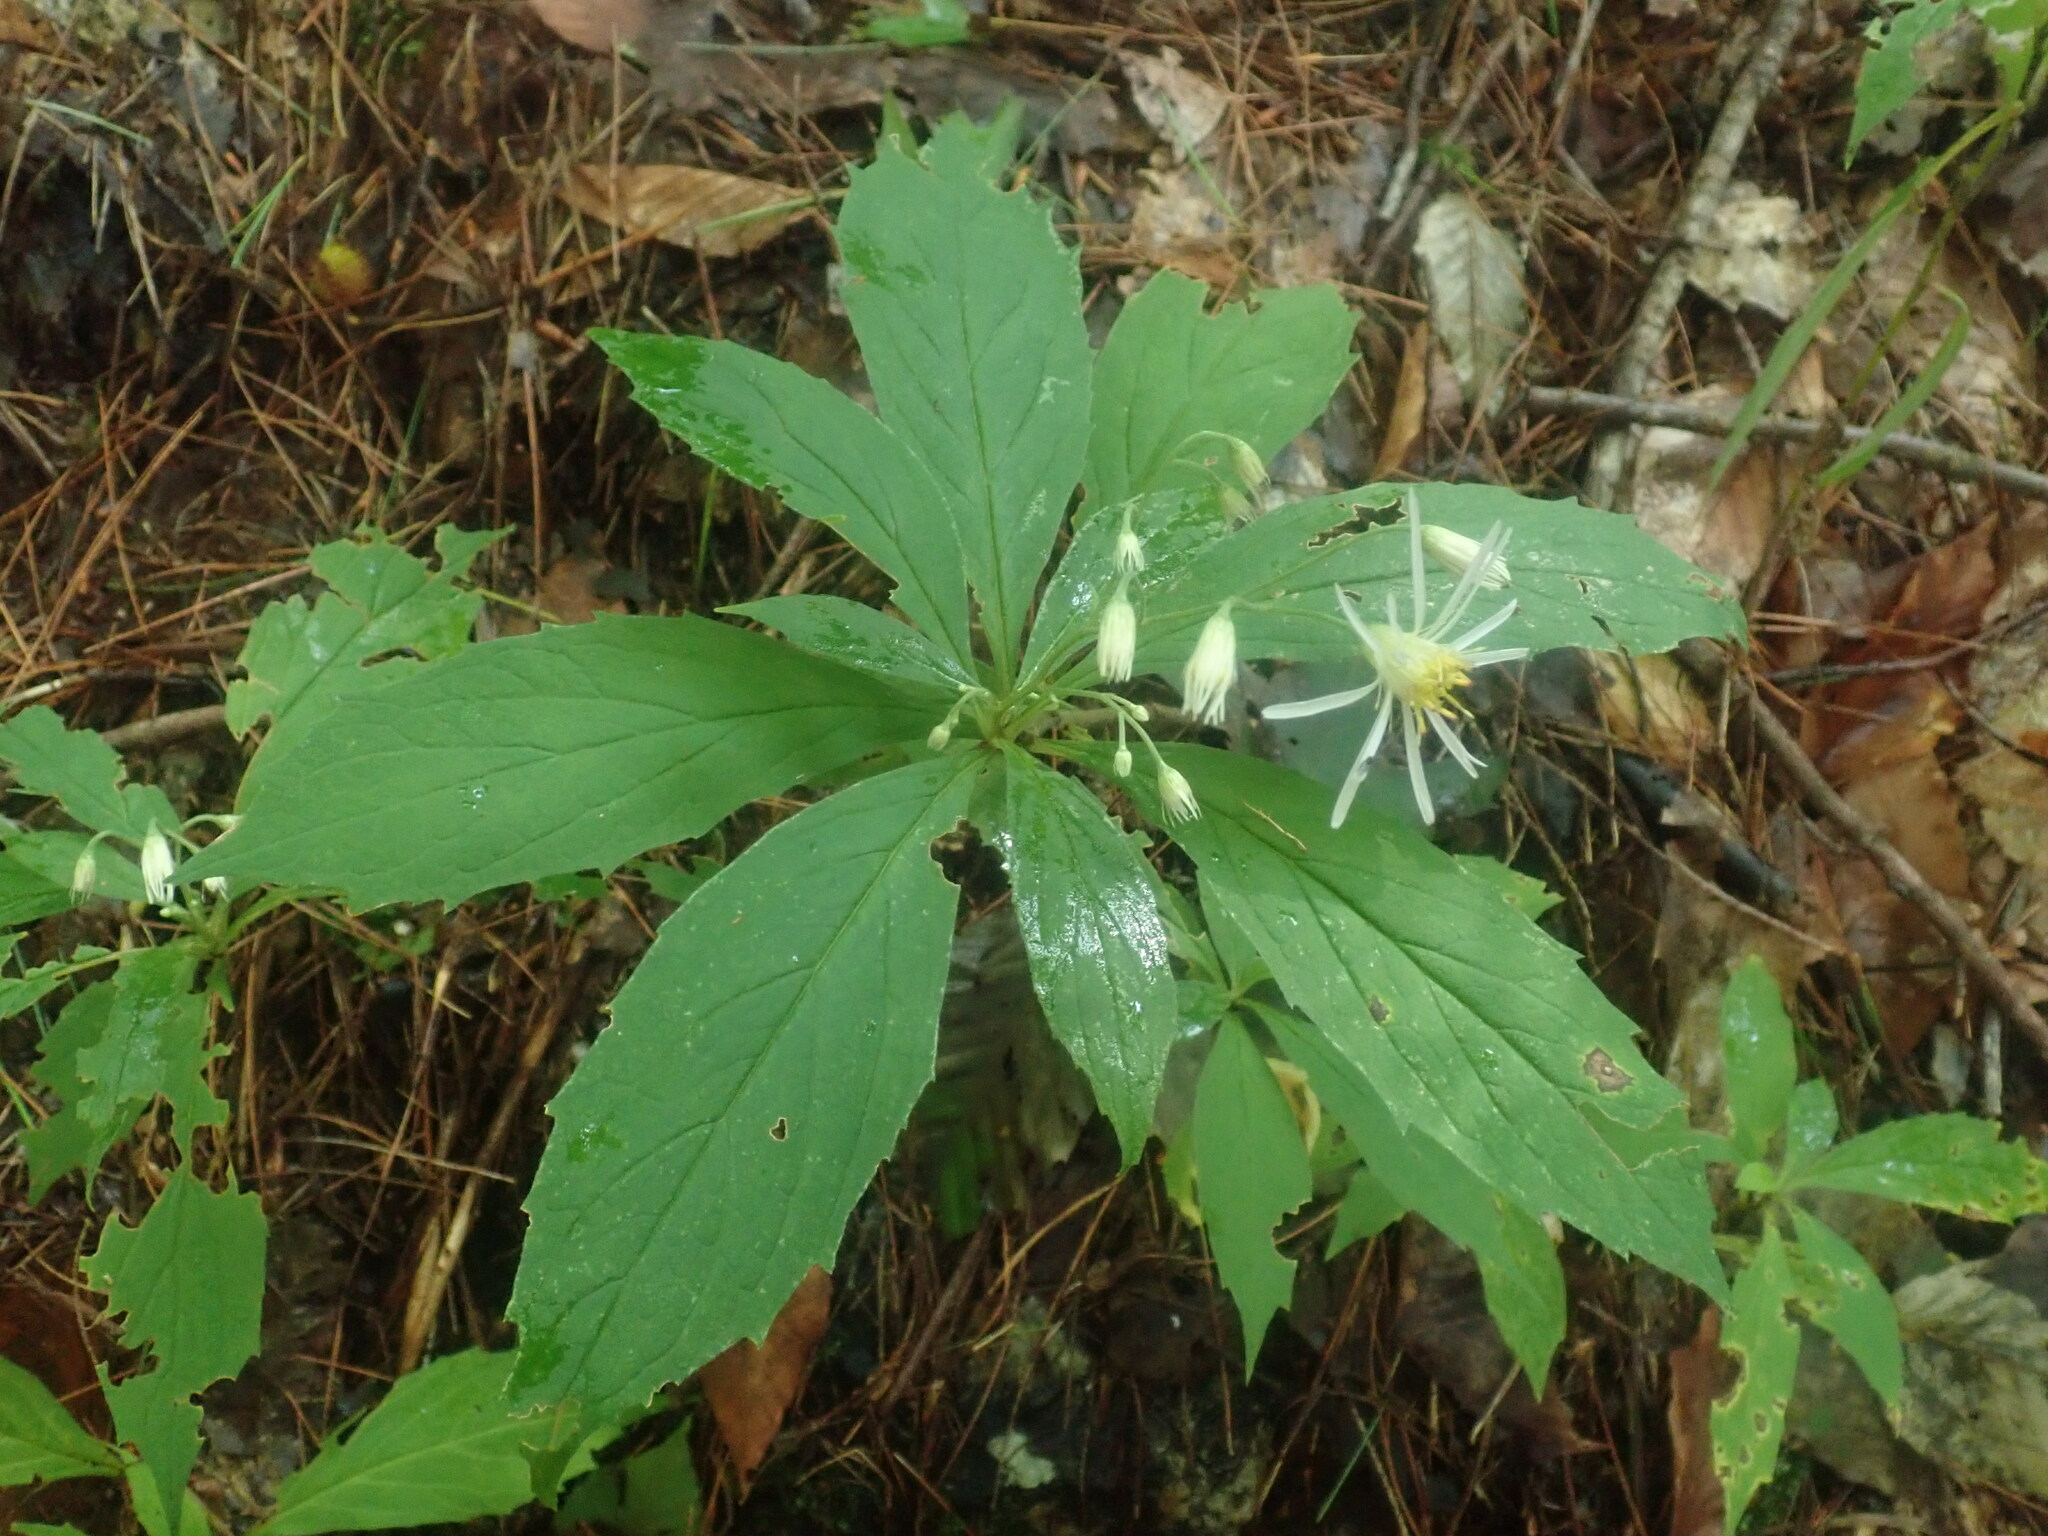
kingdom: Plantae
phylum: Tracheophyta
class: Magnoliopsida
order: Asterales
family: Asteraceae
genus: Oclemena
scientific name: Oclemena acuminata
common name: Mountain aster
